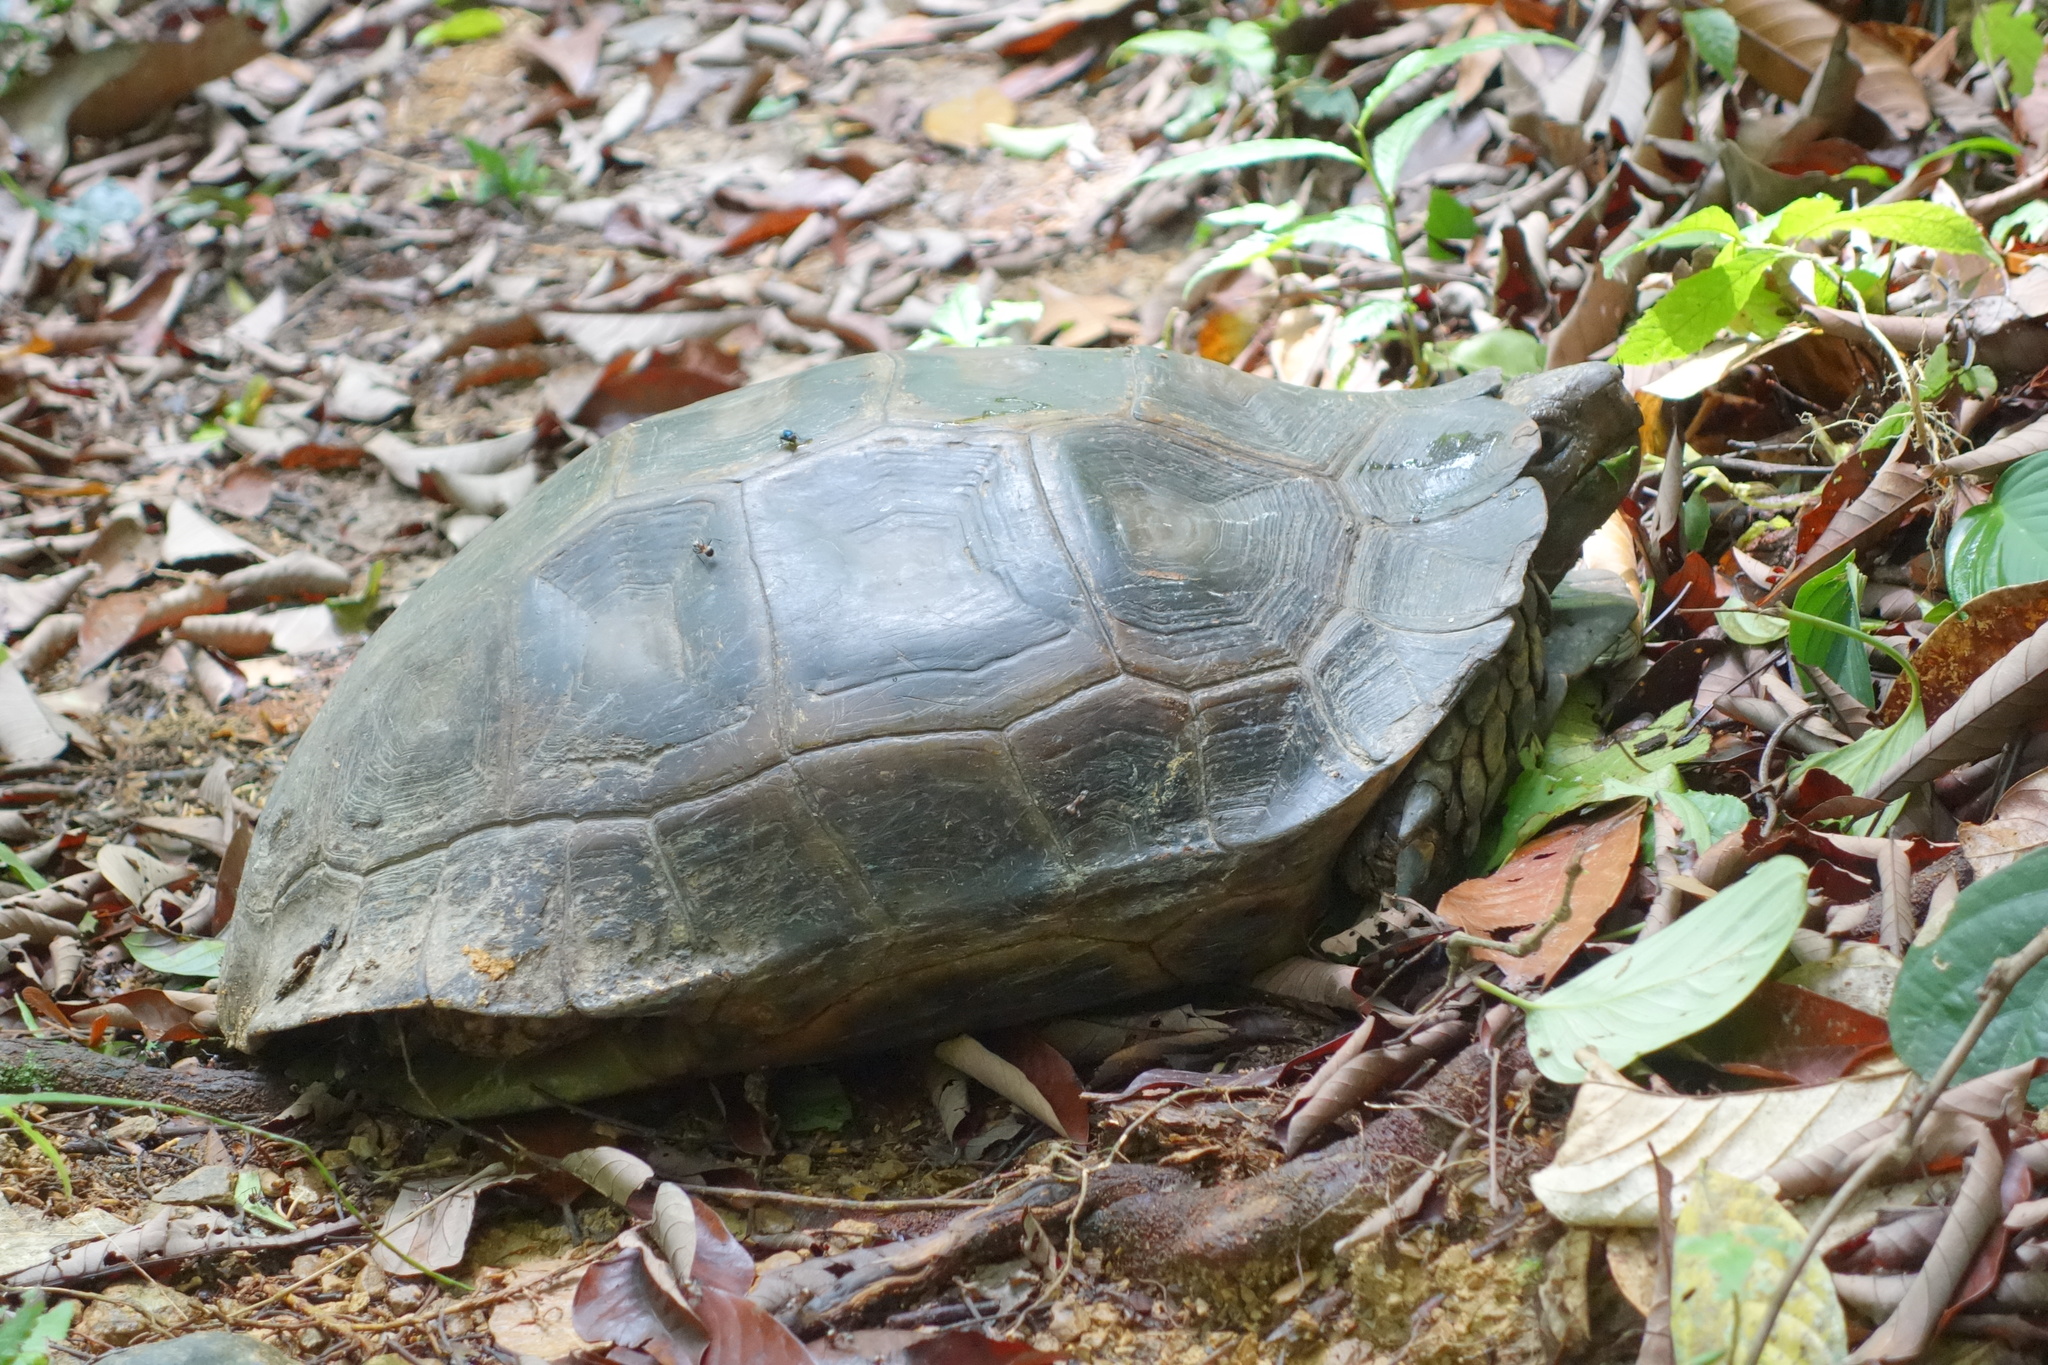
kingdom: Animalia
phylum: Chordata
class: Testudines
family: Testudinidae
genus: Manouria
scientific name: Manouria emys
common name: Asian brown tortoise
